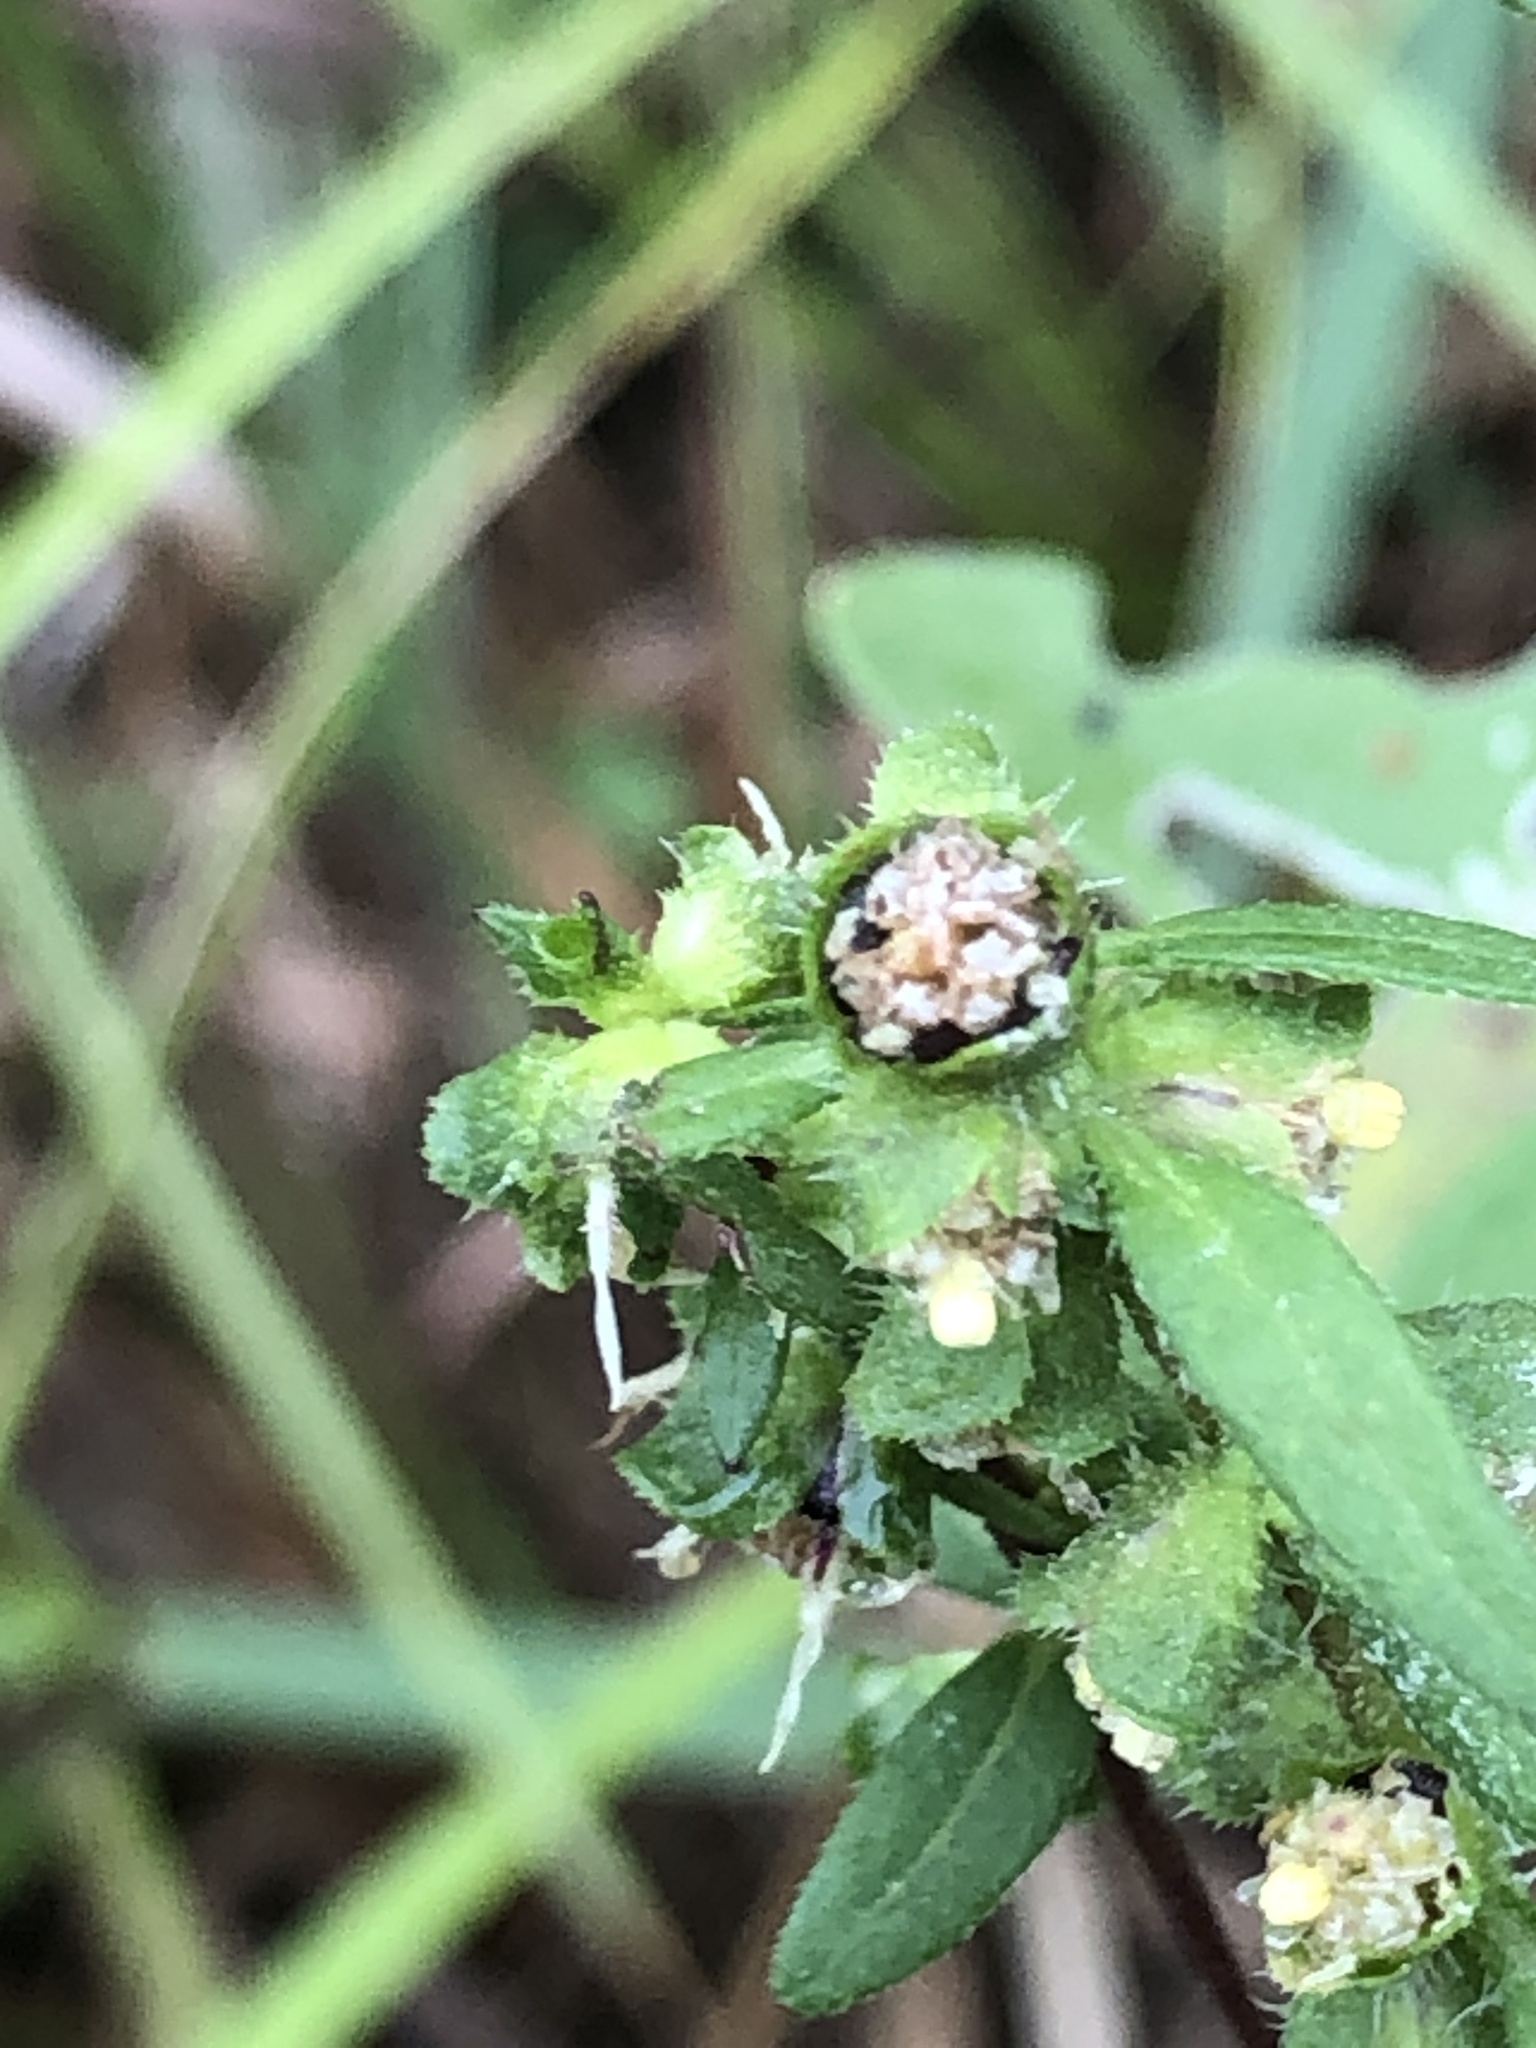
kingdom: Plantae
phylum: Tracheophyta
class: Magnoliopsida
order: Asterales
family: Asteraceae
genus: Iva
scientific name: Iva annua
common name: Marsh-elder
